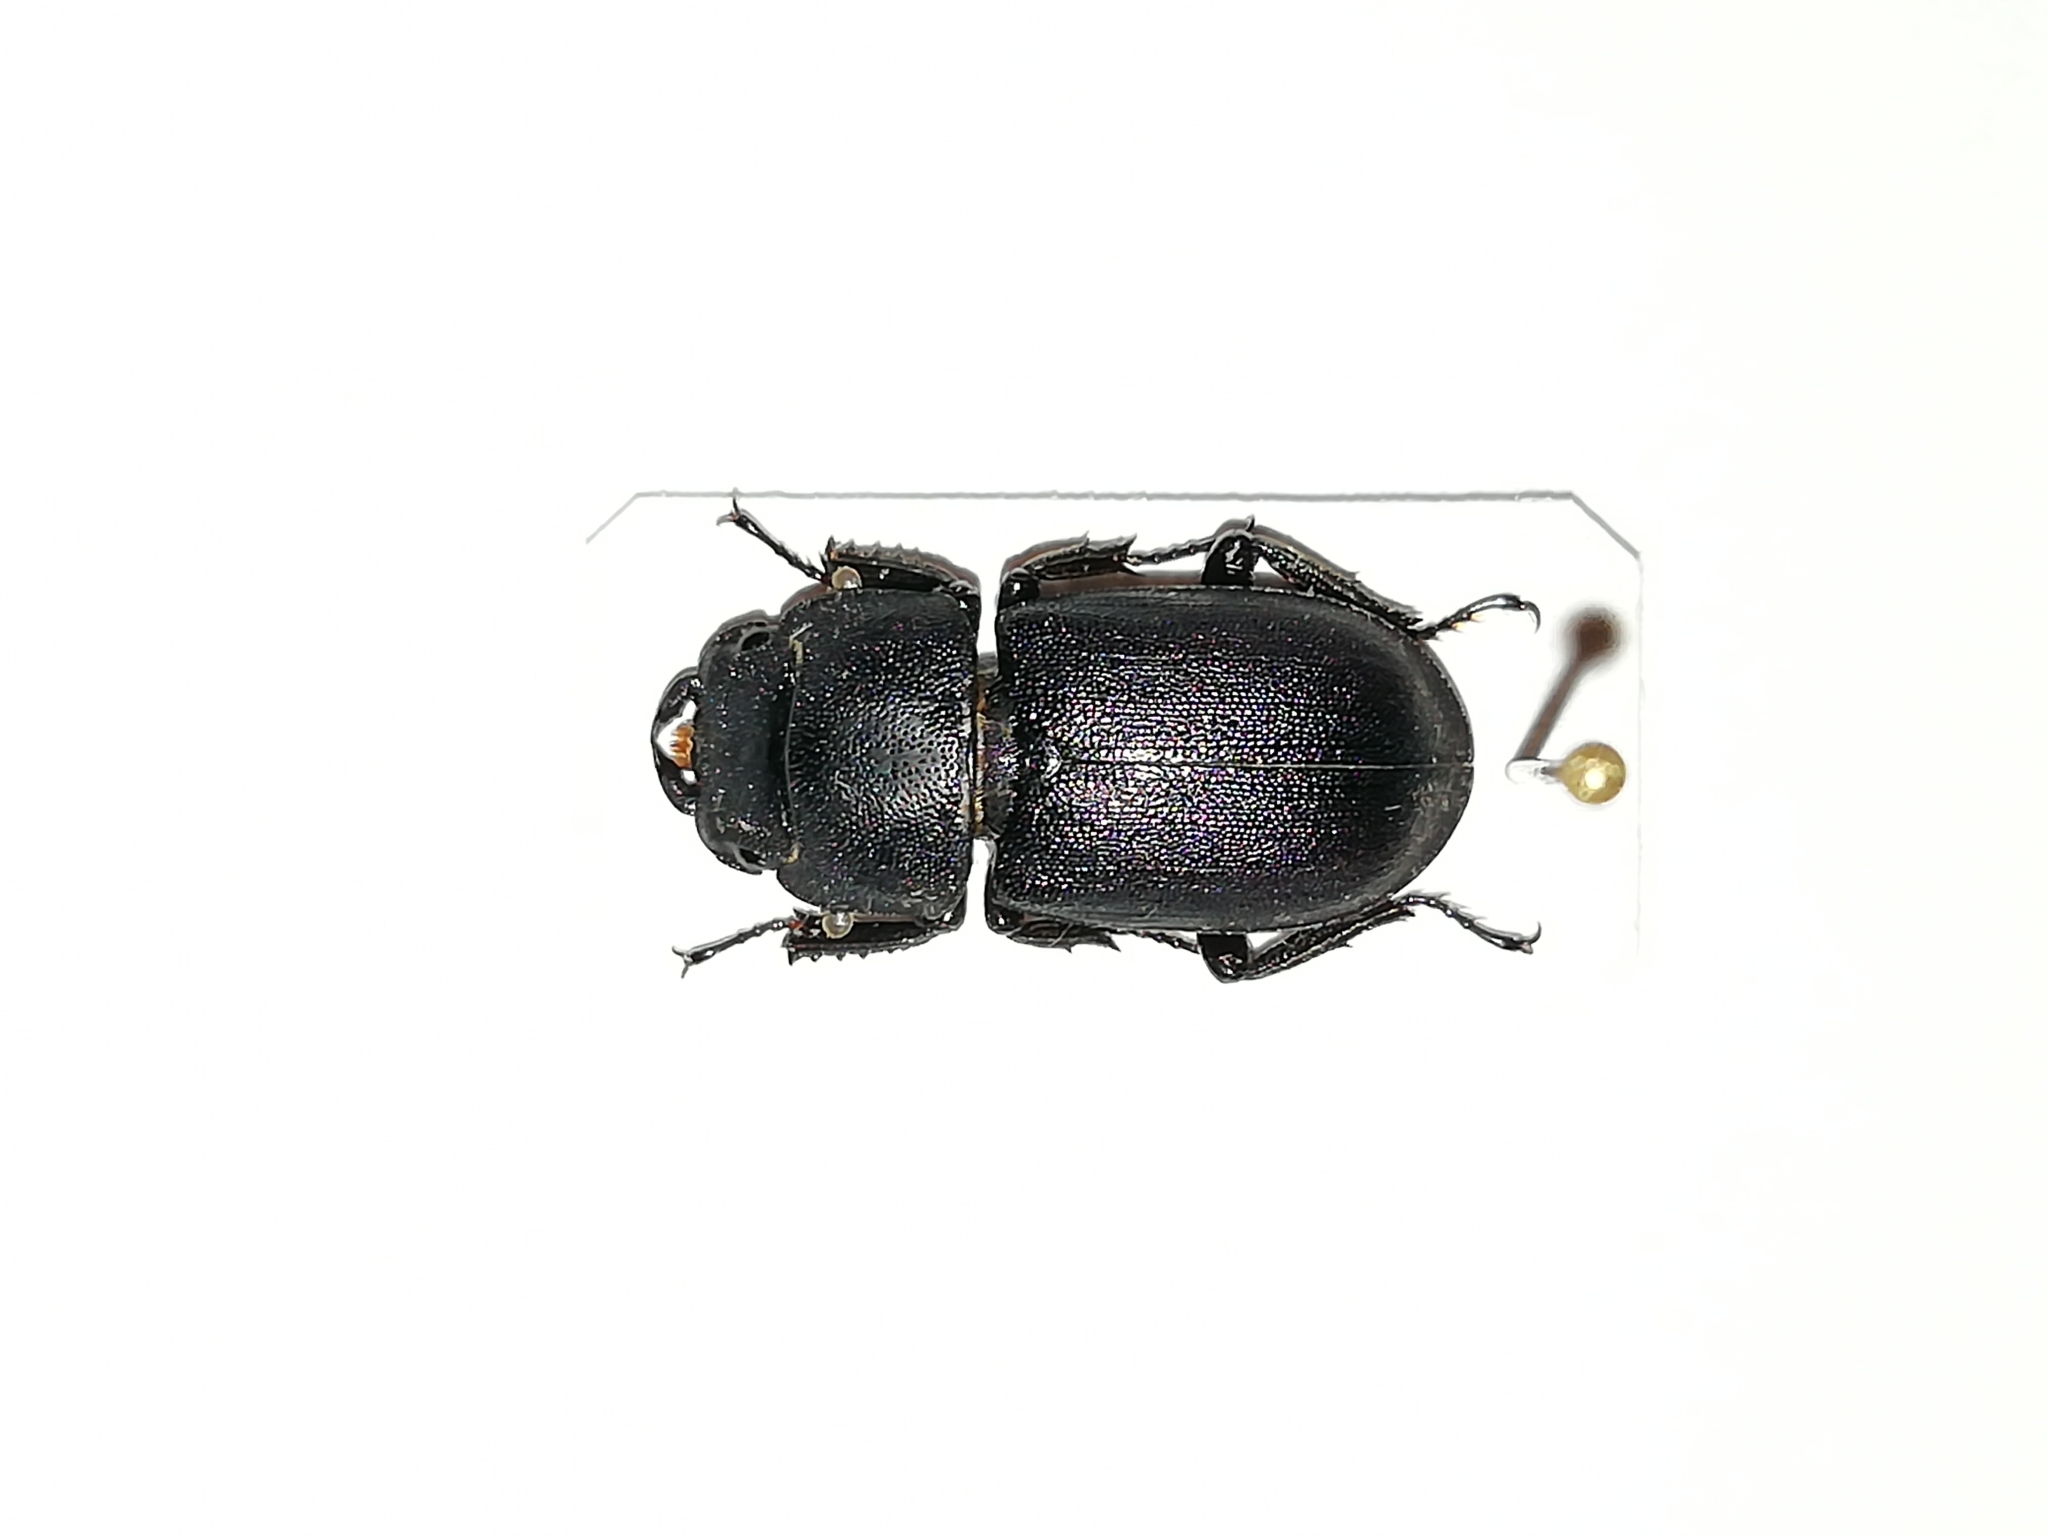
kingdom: Animalia
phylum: Arthropoda
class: Insecta
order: Coleoptera
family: Lucanidae
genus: Dorcus
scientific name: Dorcus parallelipipedus
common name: Lesser stag beetle
